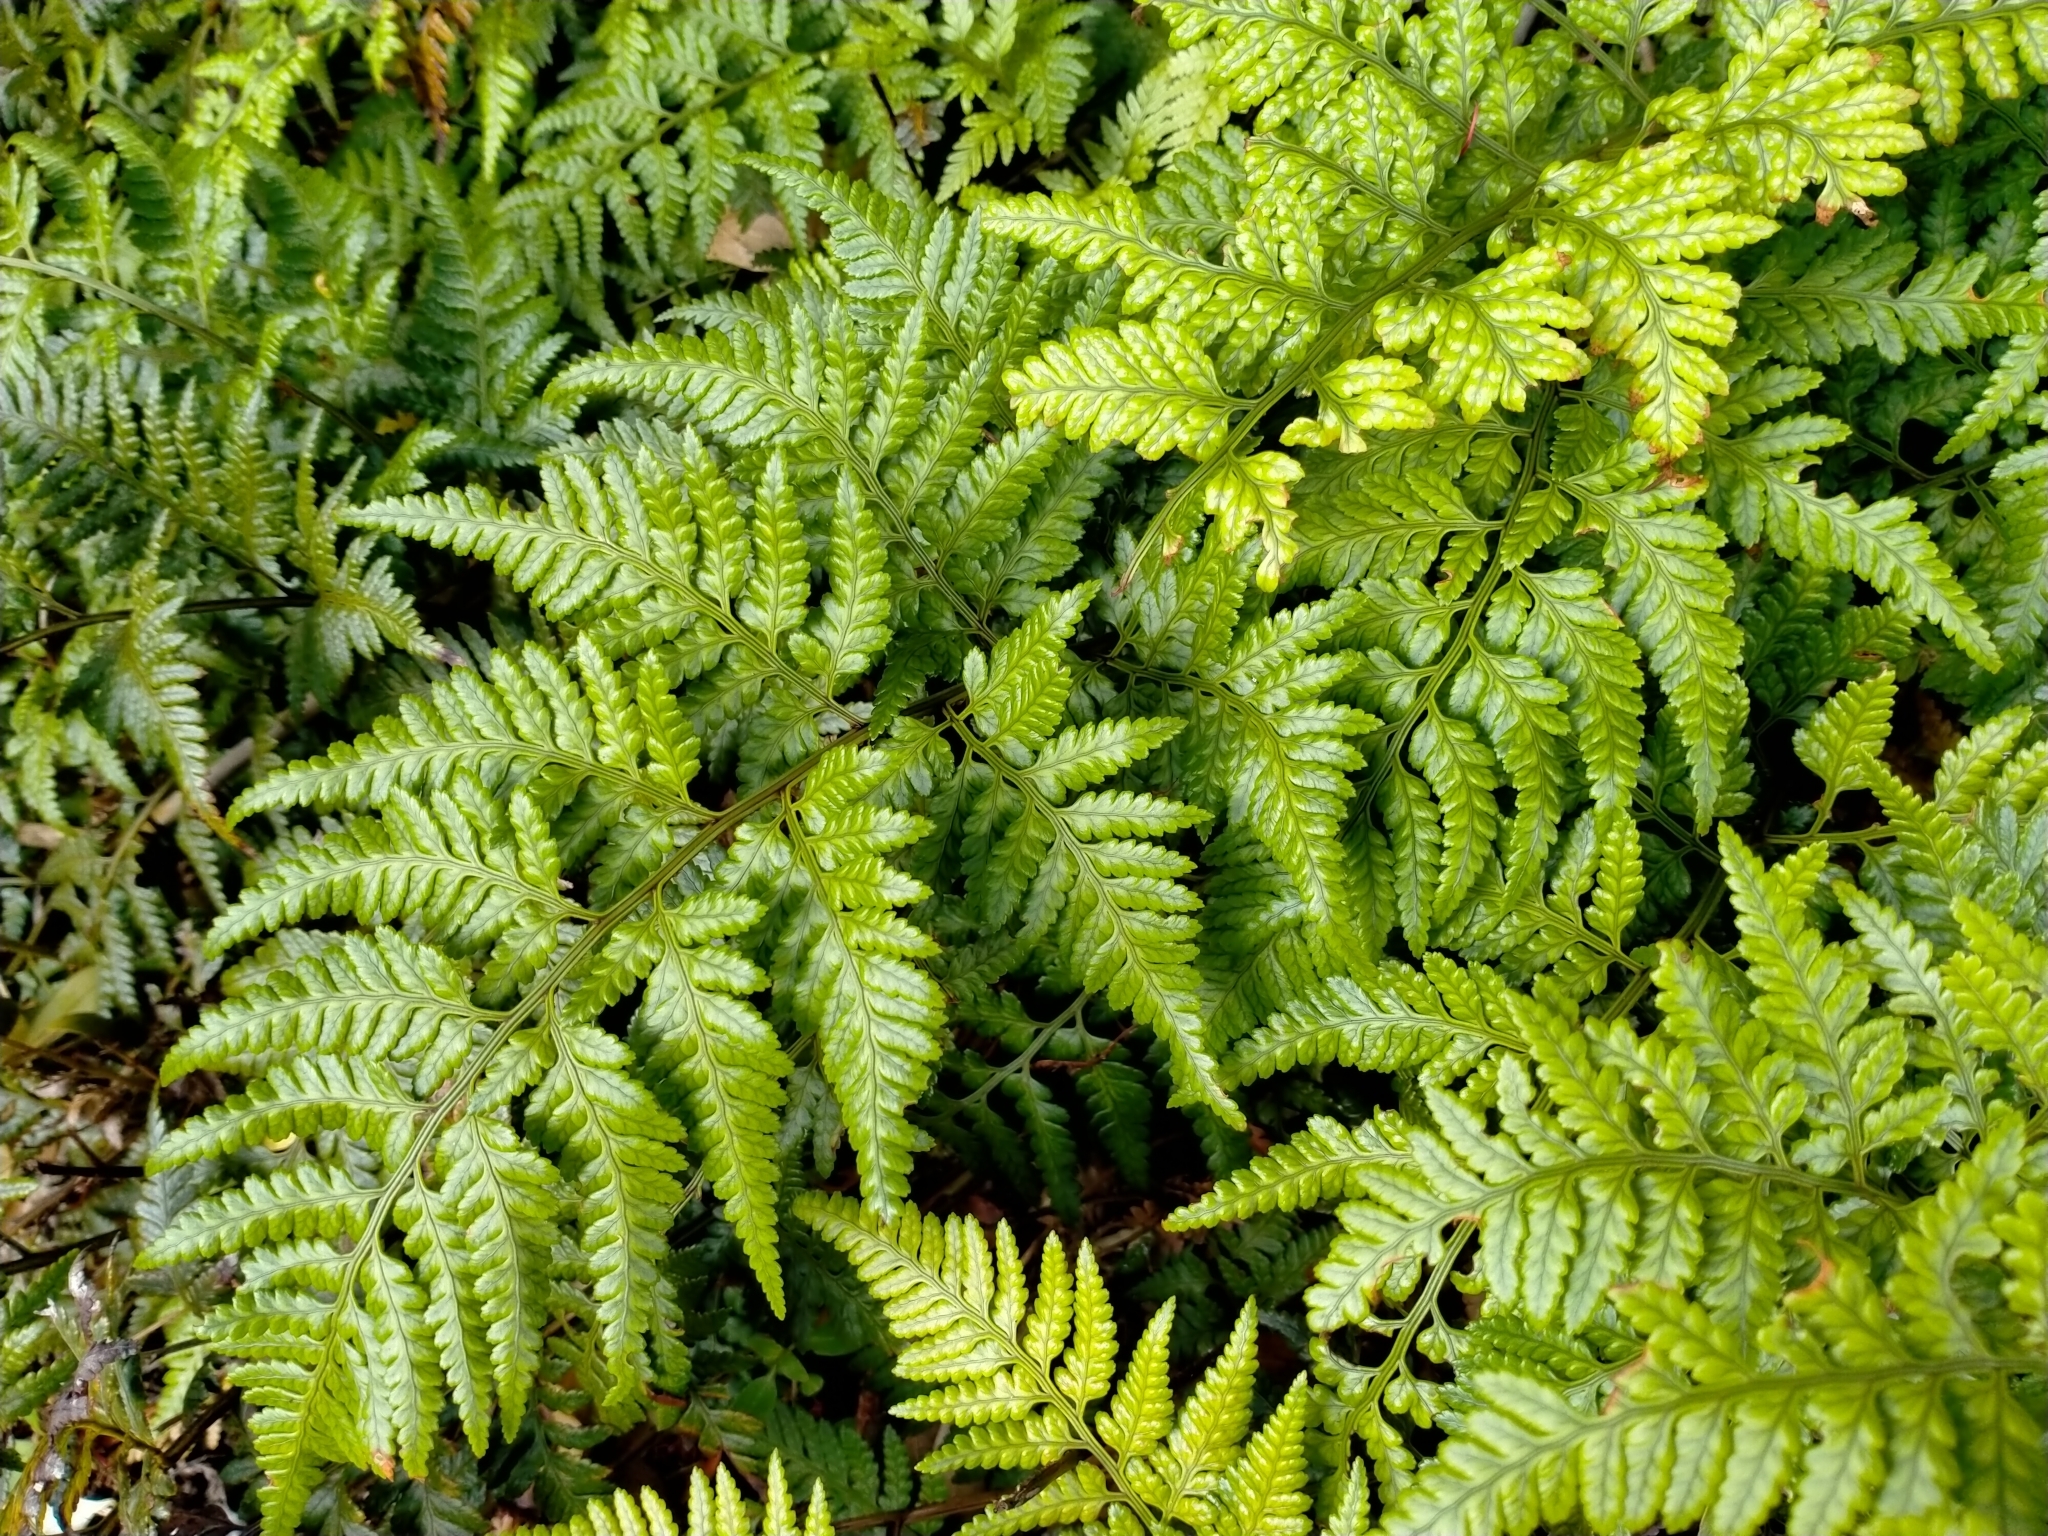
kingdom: Plantae
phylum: Tracheophyta
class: Polypodiopsida
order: Polypodiales
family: Dryopteridaceae
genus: Rumohra
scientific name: Rumohra adiantiformis
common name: Leather fern
